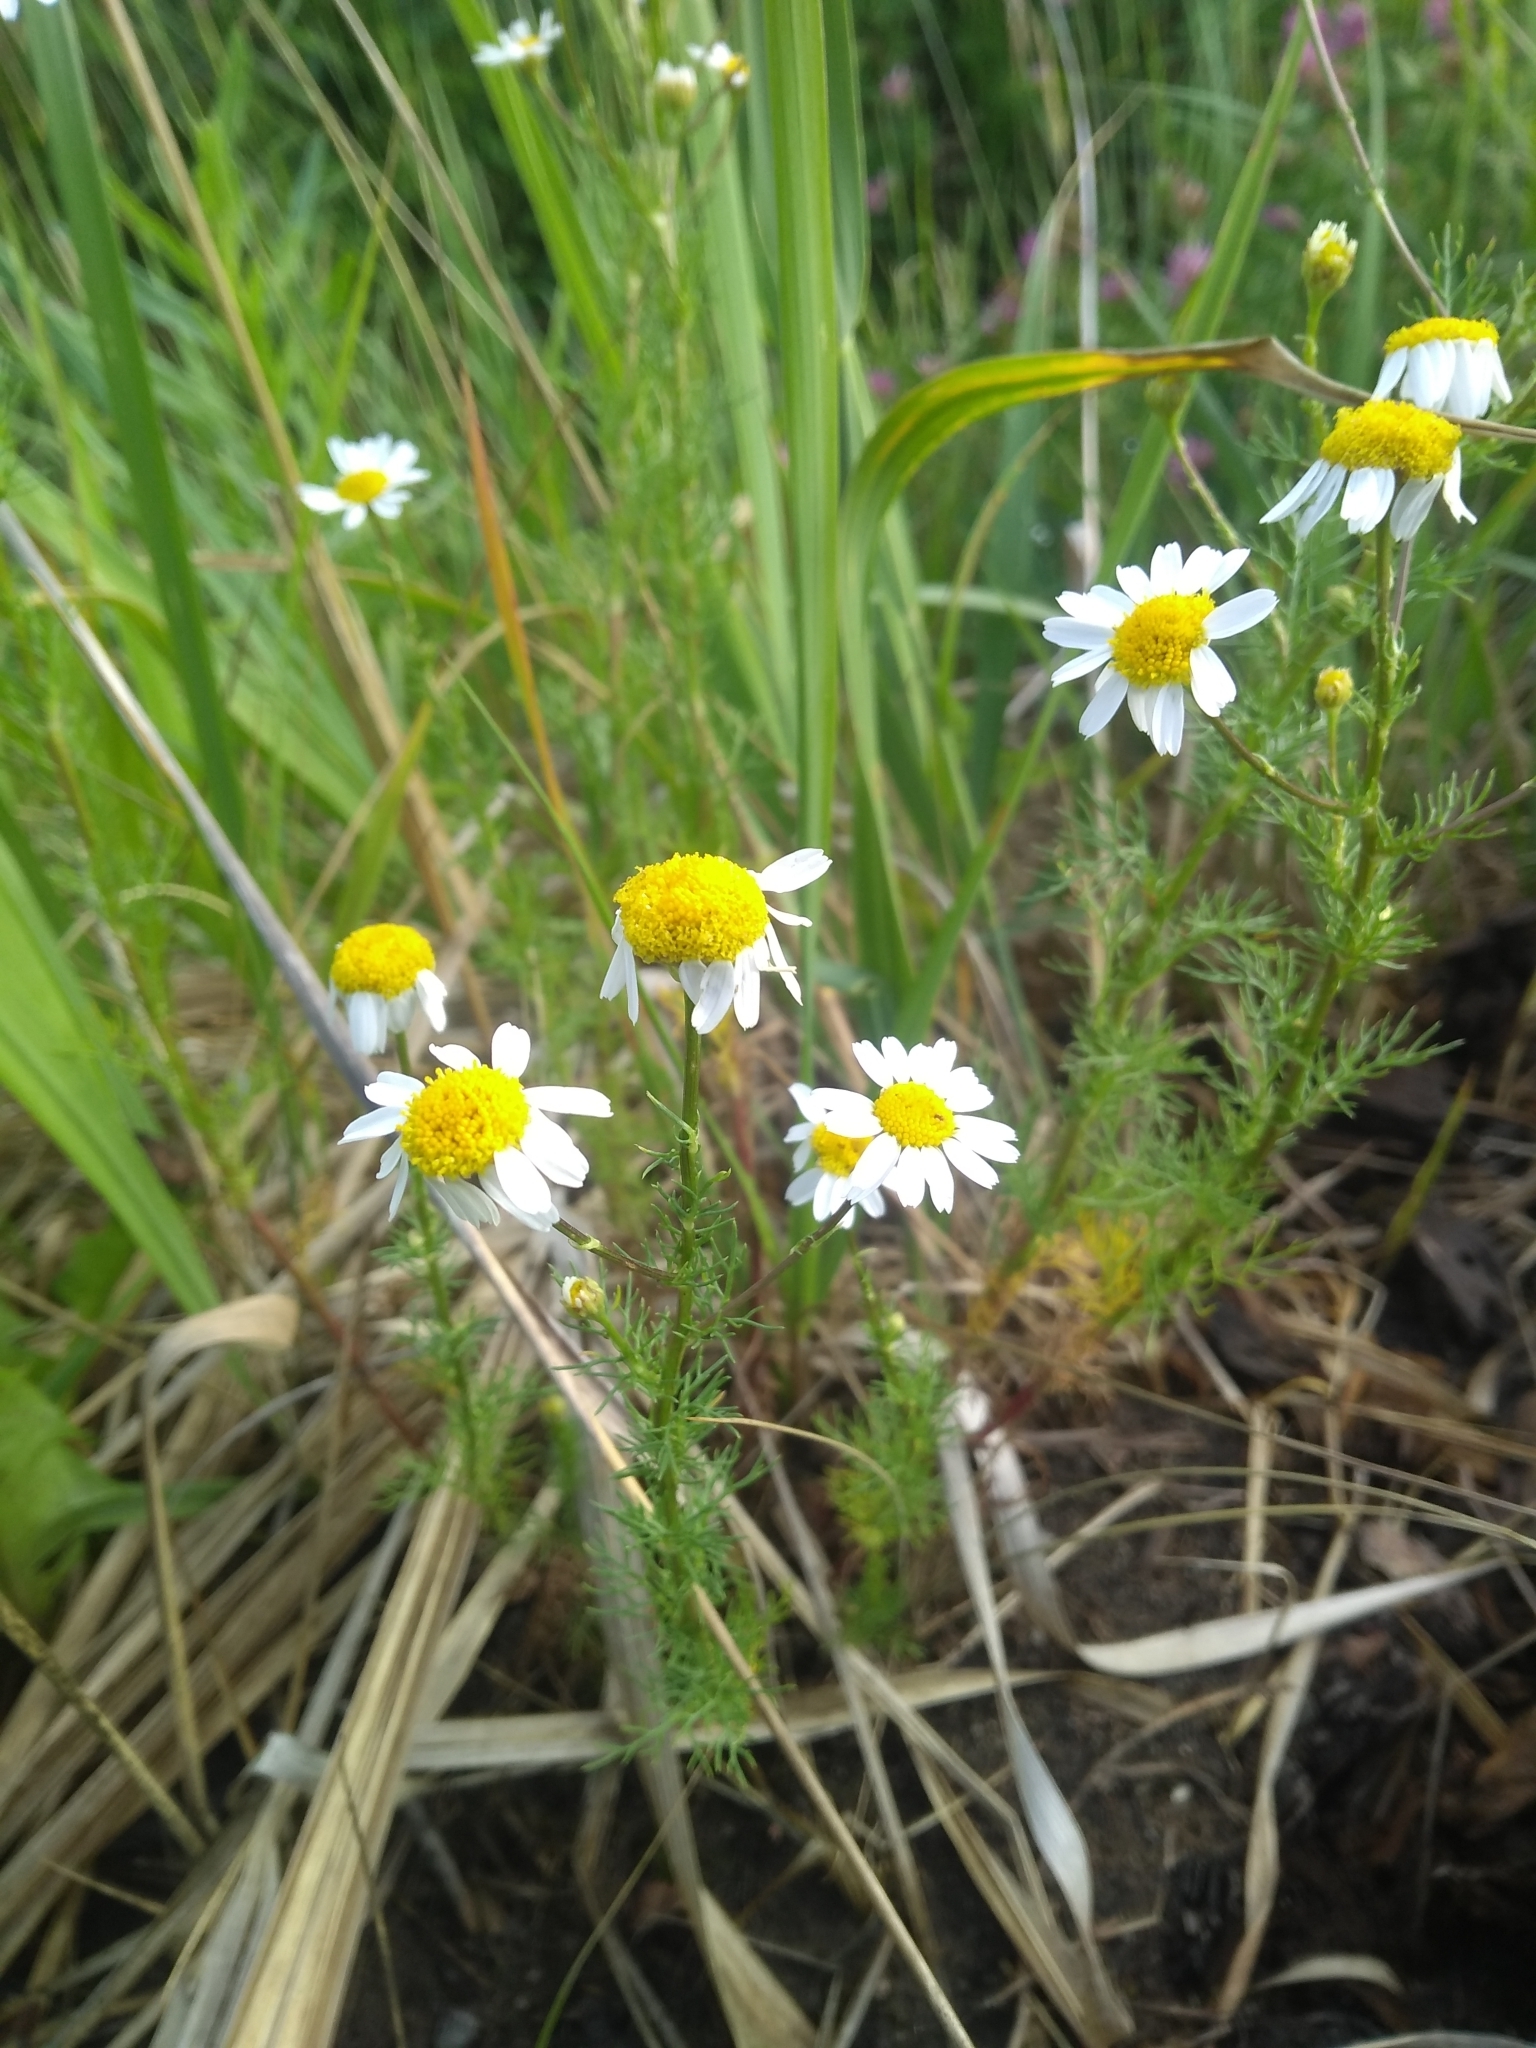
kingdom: Plantae
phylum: Tracheophyta
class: Magnoliopsida
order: Asterales
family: Asteraceae
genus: Tripleurospermum
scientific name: Tripleurospermum inodorum
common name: Scentless mayweed
